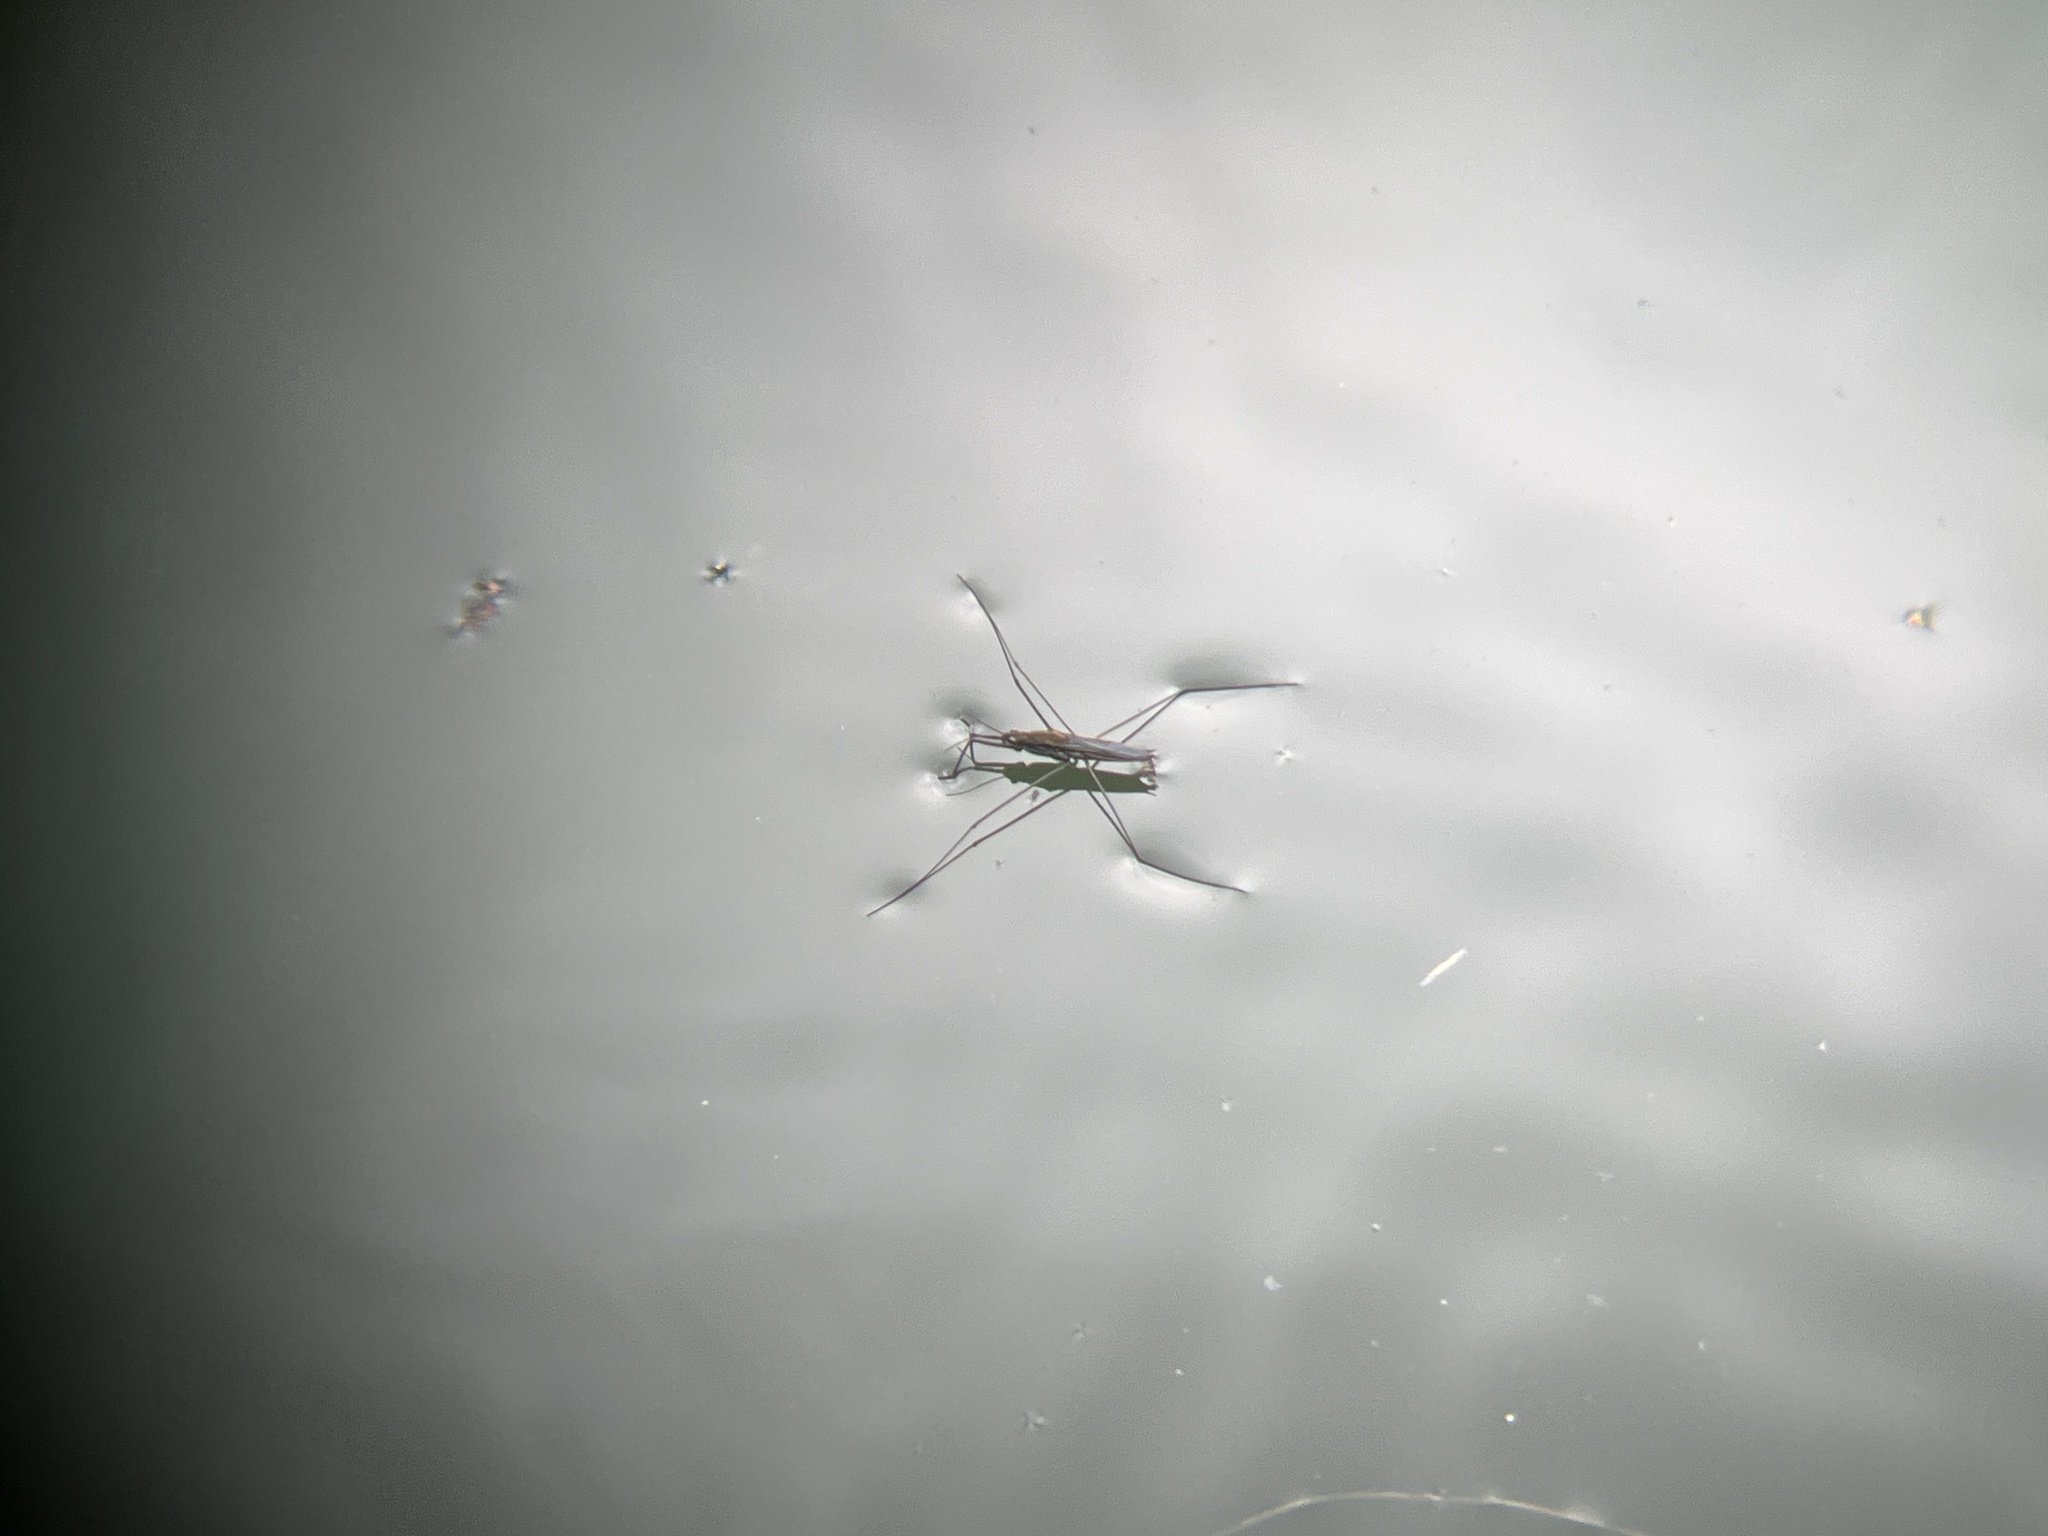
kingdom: Animalia
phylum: Arthropoda
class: Insecta
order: Hemiptera
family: Gerridae
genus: Aquarius
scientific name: Aquarius paludum
